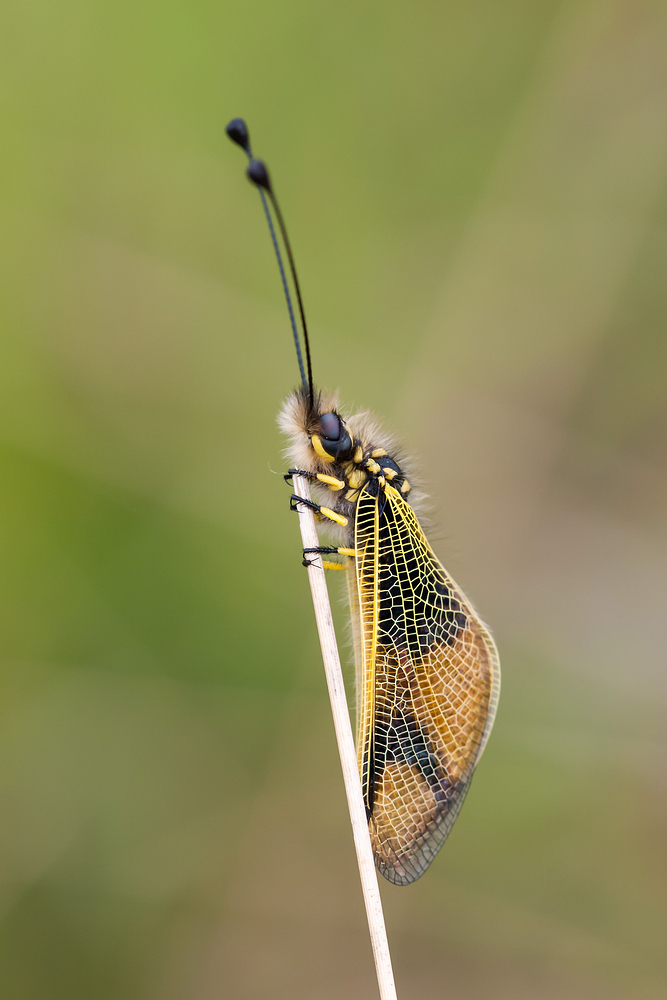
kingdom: Animalia
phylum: Arthropoda
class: Insecta
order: Neuroptera
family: Ascalaphidae
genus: Libelloides
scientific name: Libelloides longicornis
